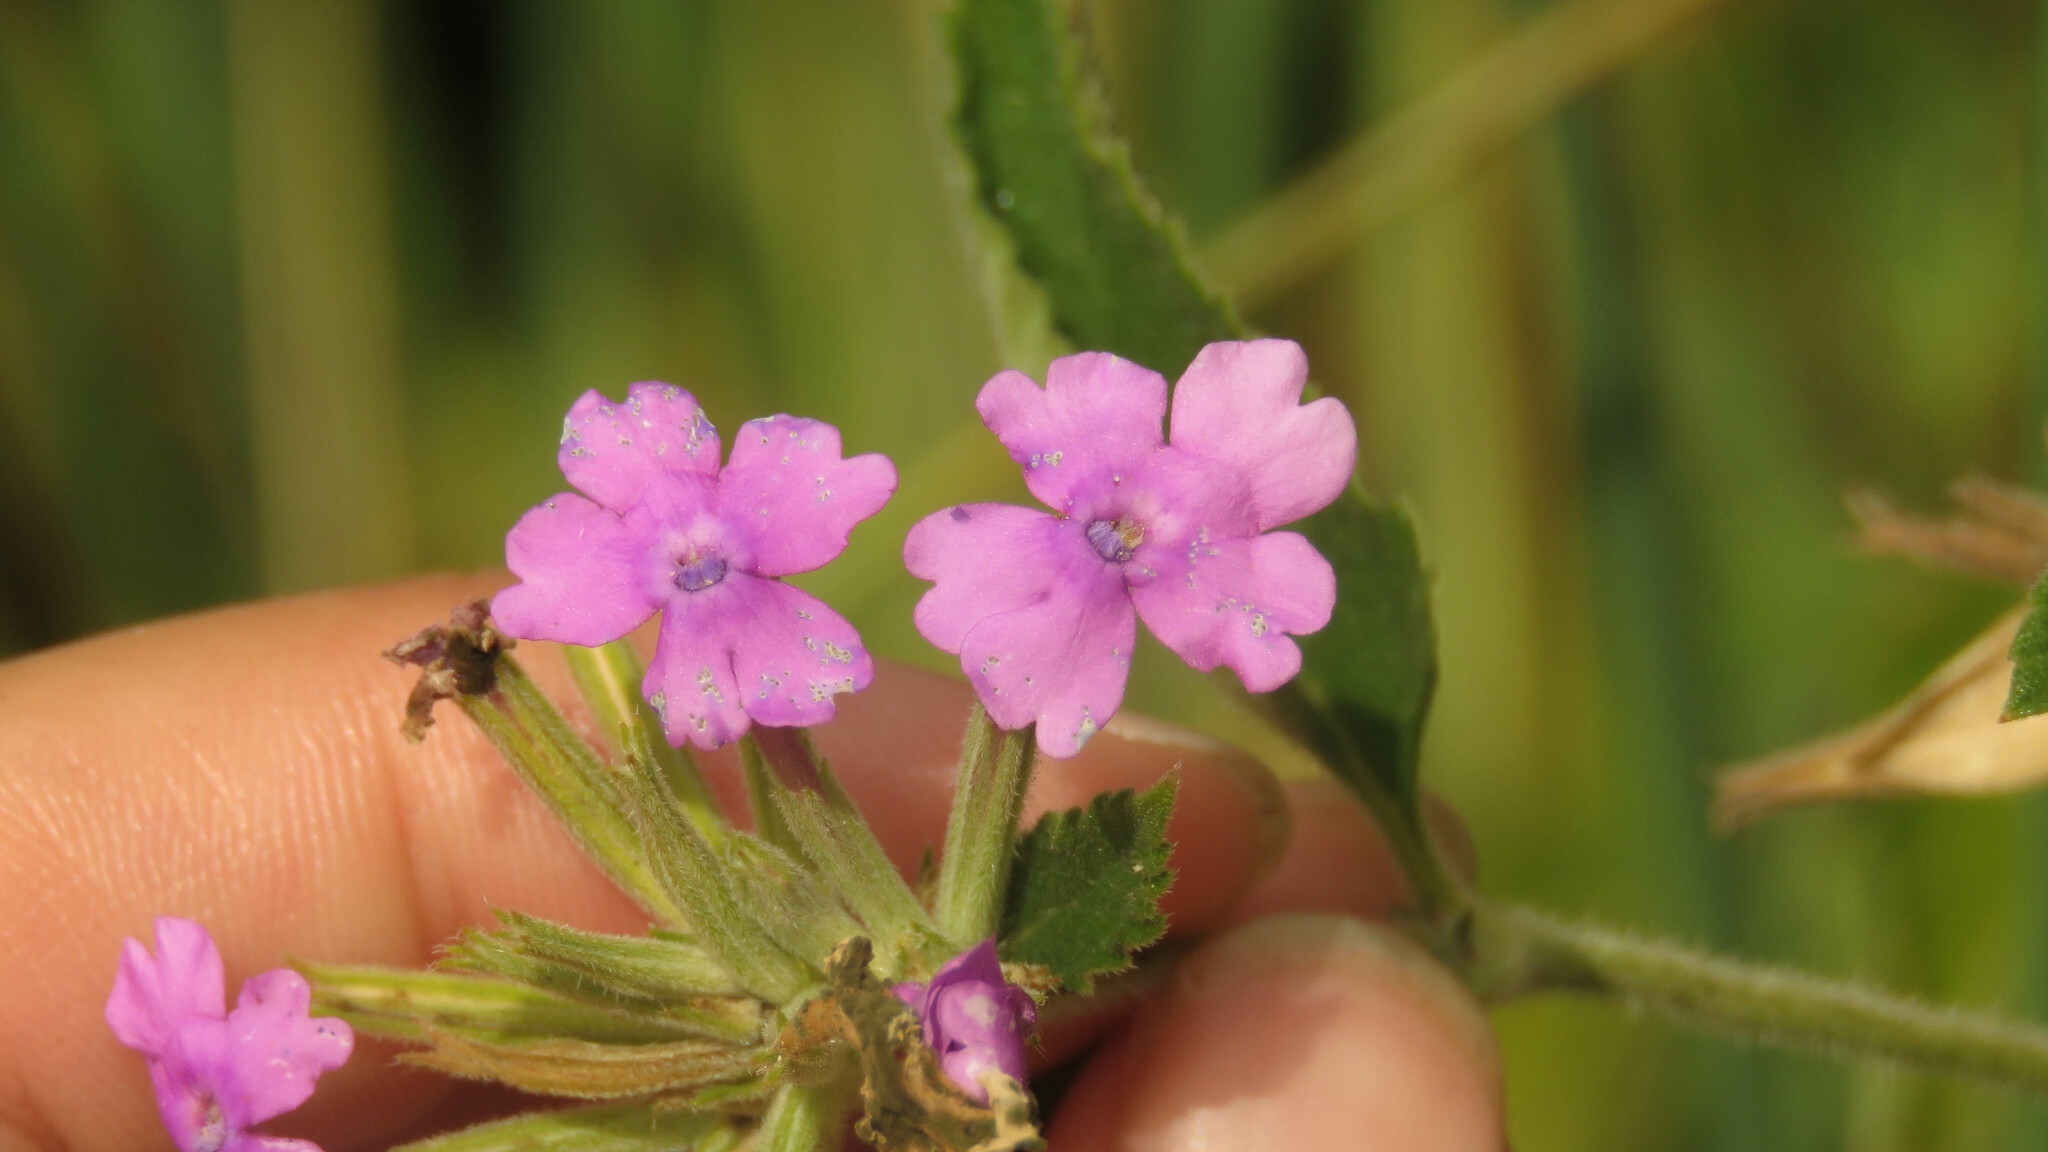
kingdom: Plantae
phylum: Tracheophyta
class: Magnoliopsida
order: Lamiales
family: Verbenaceae
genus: Verbena
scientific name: Verbena phlogiflora
